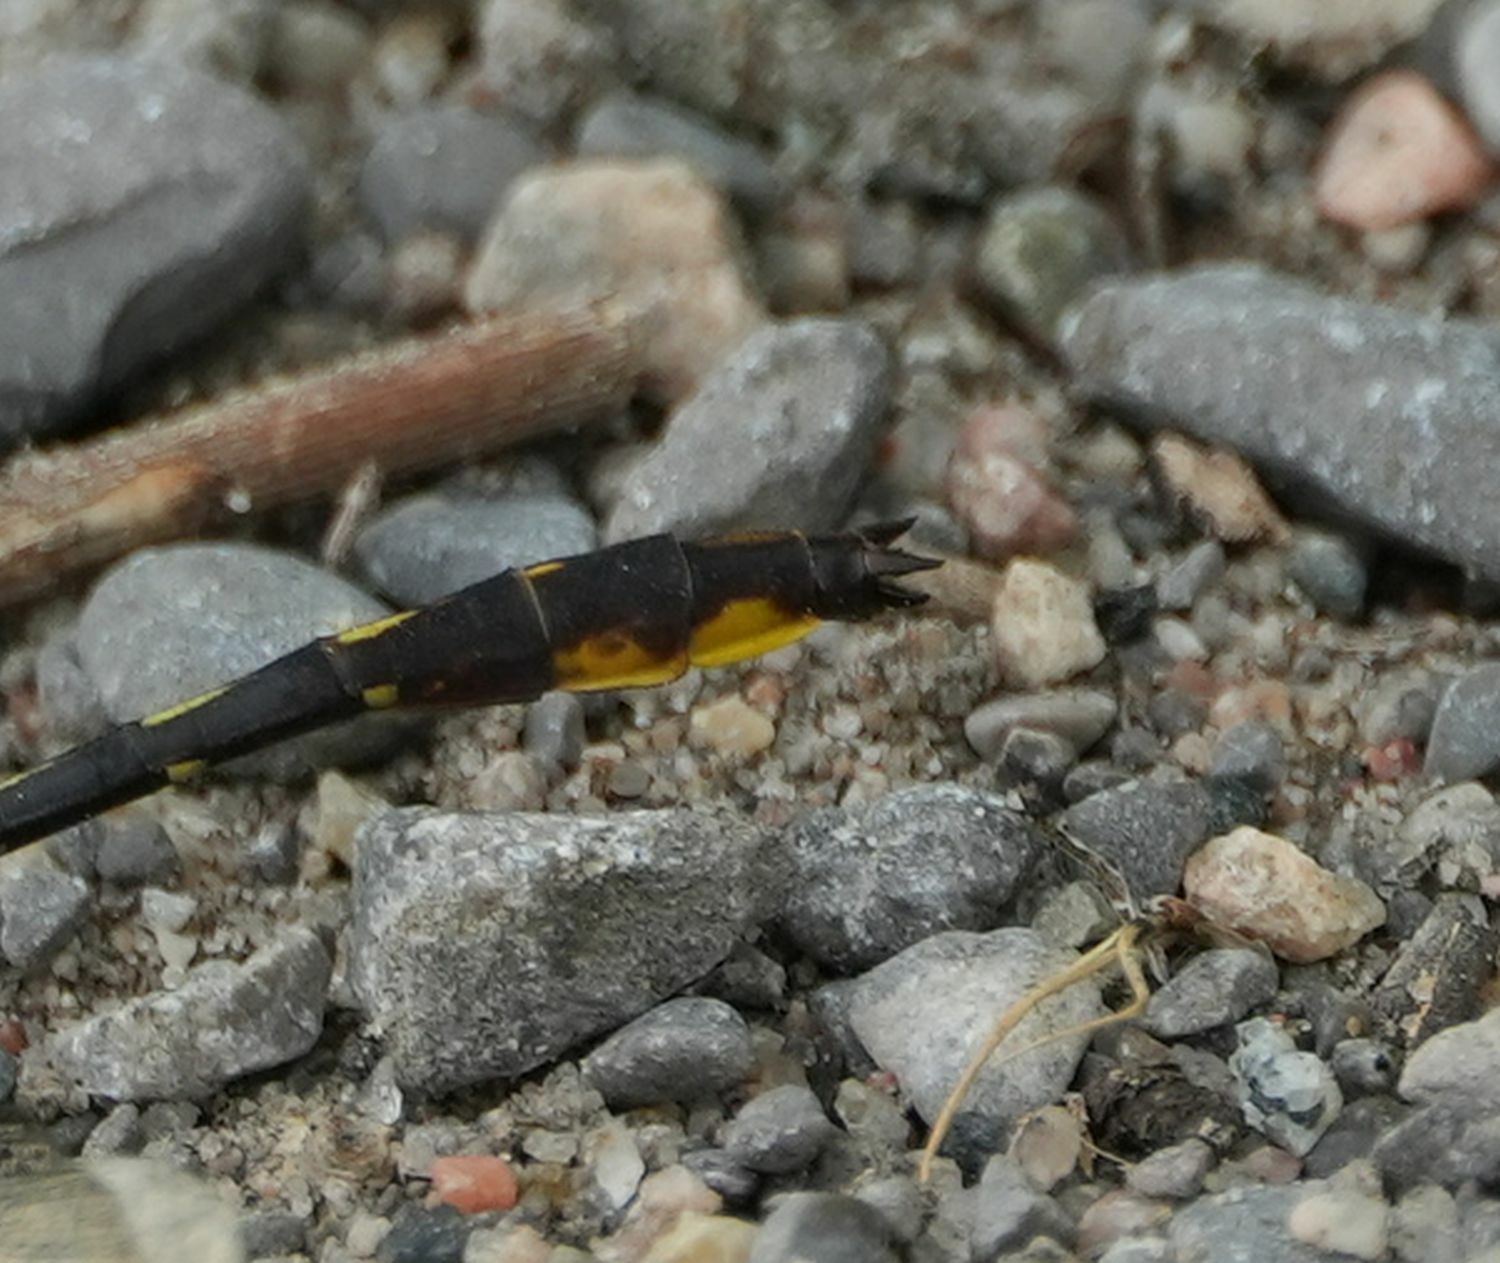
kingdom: Animalia
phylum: Arthropoda
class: Insecta
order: Odonata
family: Gomphidae
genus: Phanogomphus
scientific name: Phanogomphus exilis
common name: Lancet clubtail
